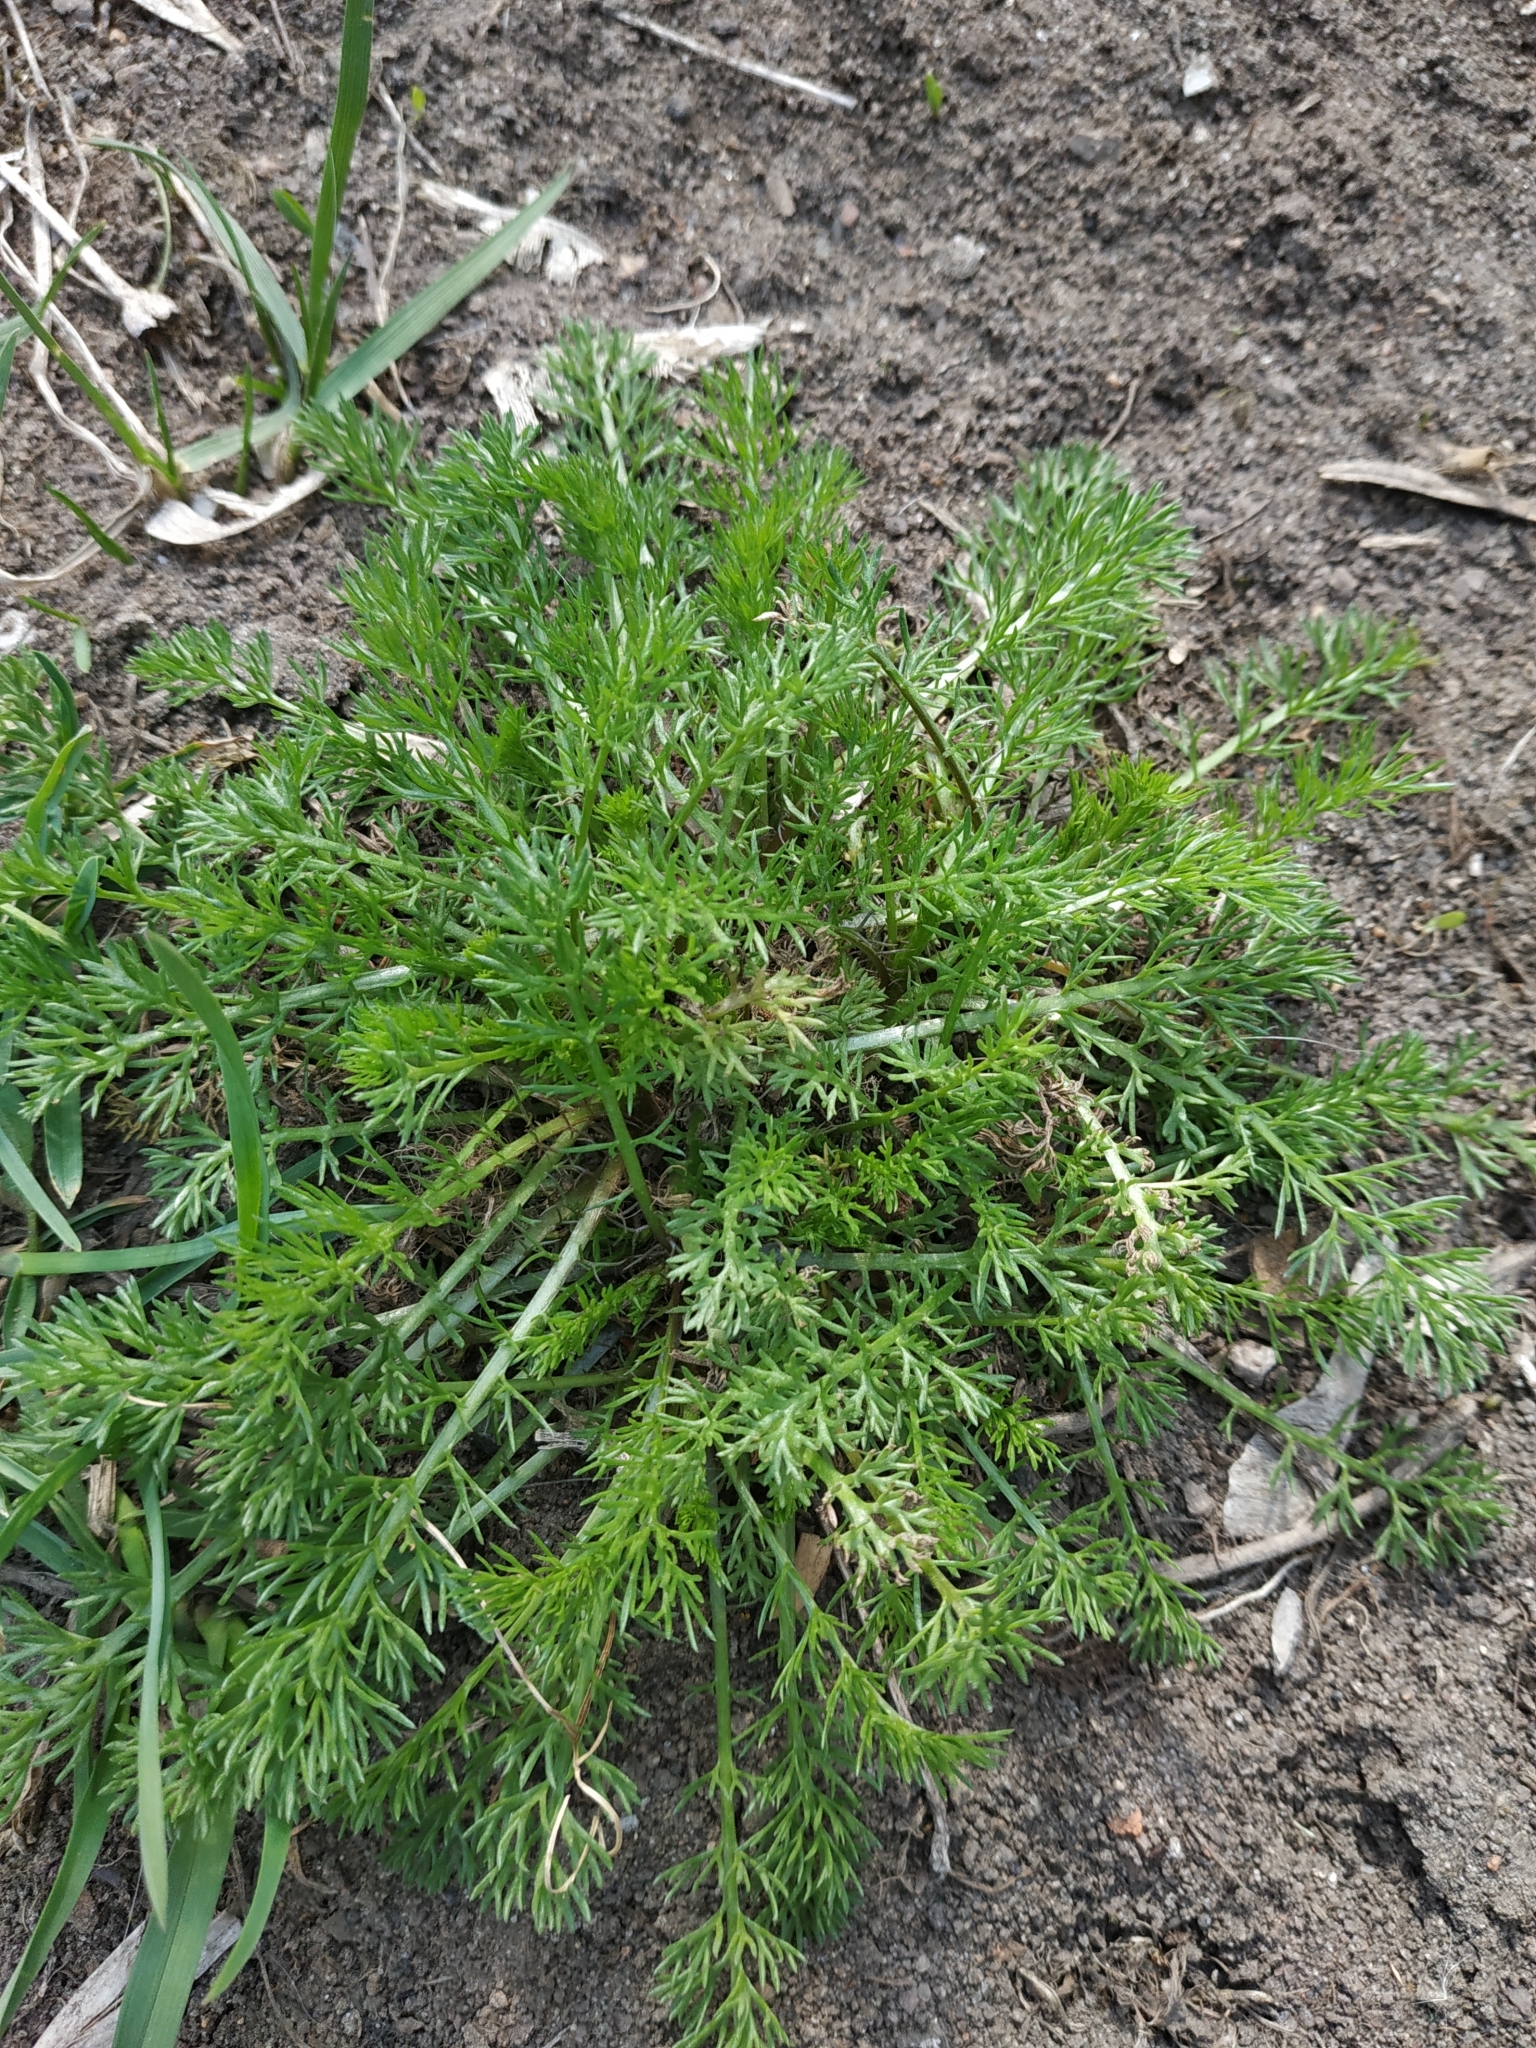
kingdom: Plantae
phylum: Tracheophyta
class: Magnoliopsida
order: Asterales
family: Asteraceae
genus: Tripleurospermum
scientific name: Tripleurospermum inodorum
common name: Scentless mayweed
